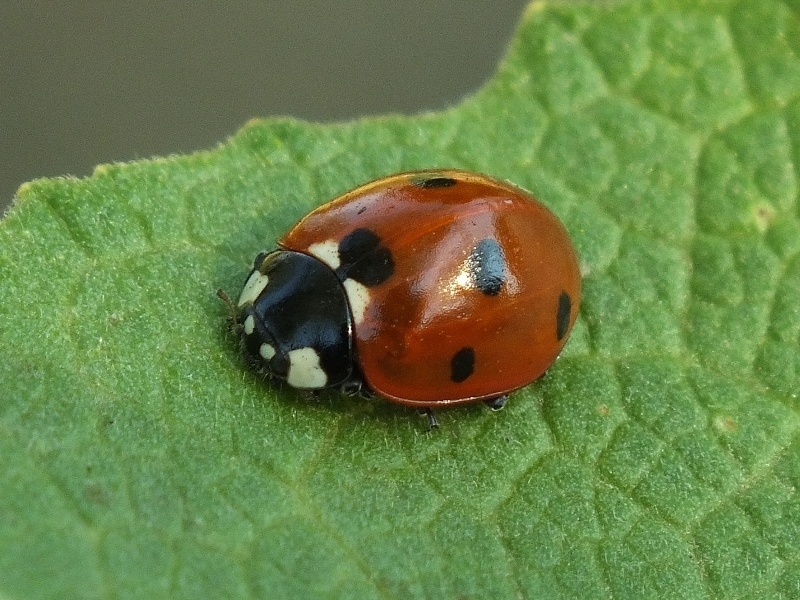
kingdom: Animalia
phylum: Arthropoda
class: Insecta
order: Coleoptera
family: Coccinellidae
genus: Coccinella
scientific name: Coccinella septempunctata
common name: Sevenspotted lady beetle
